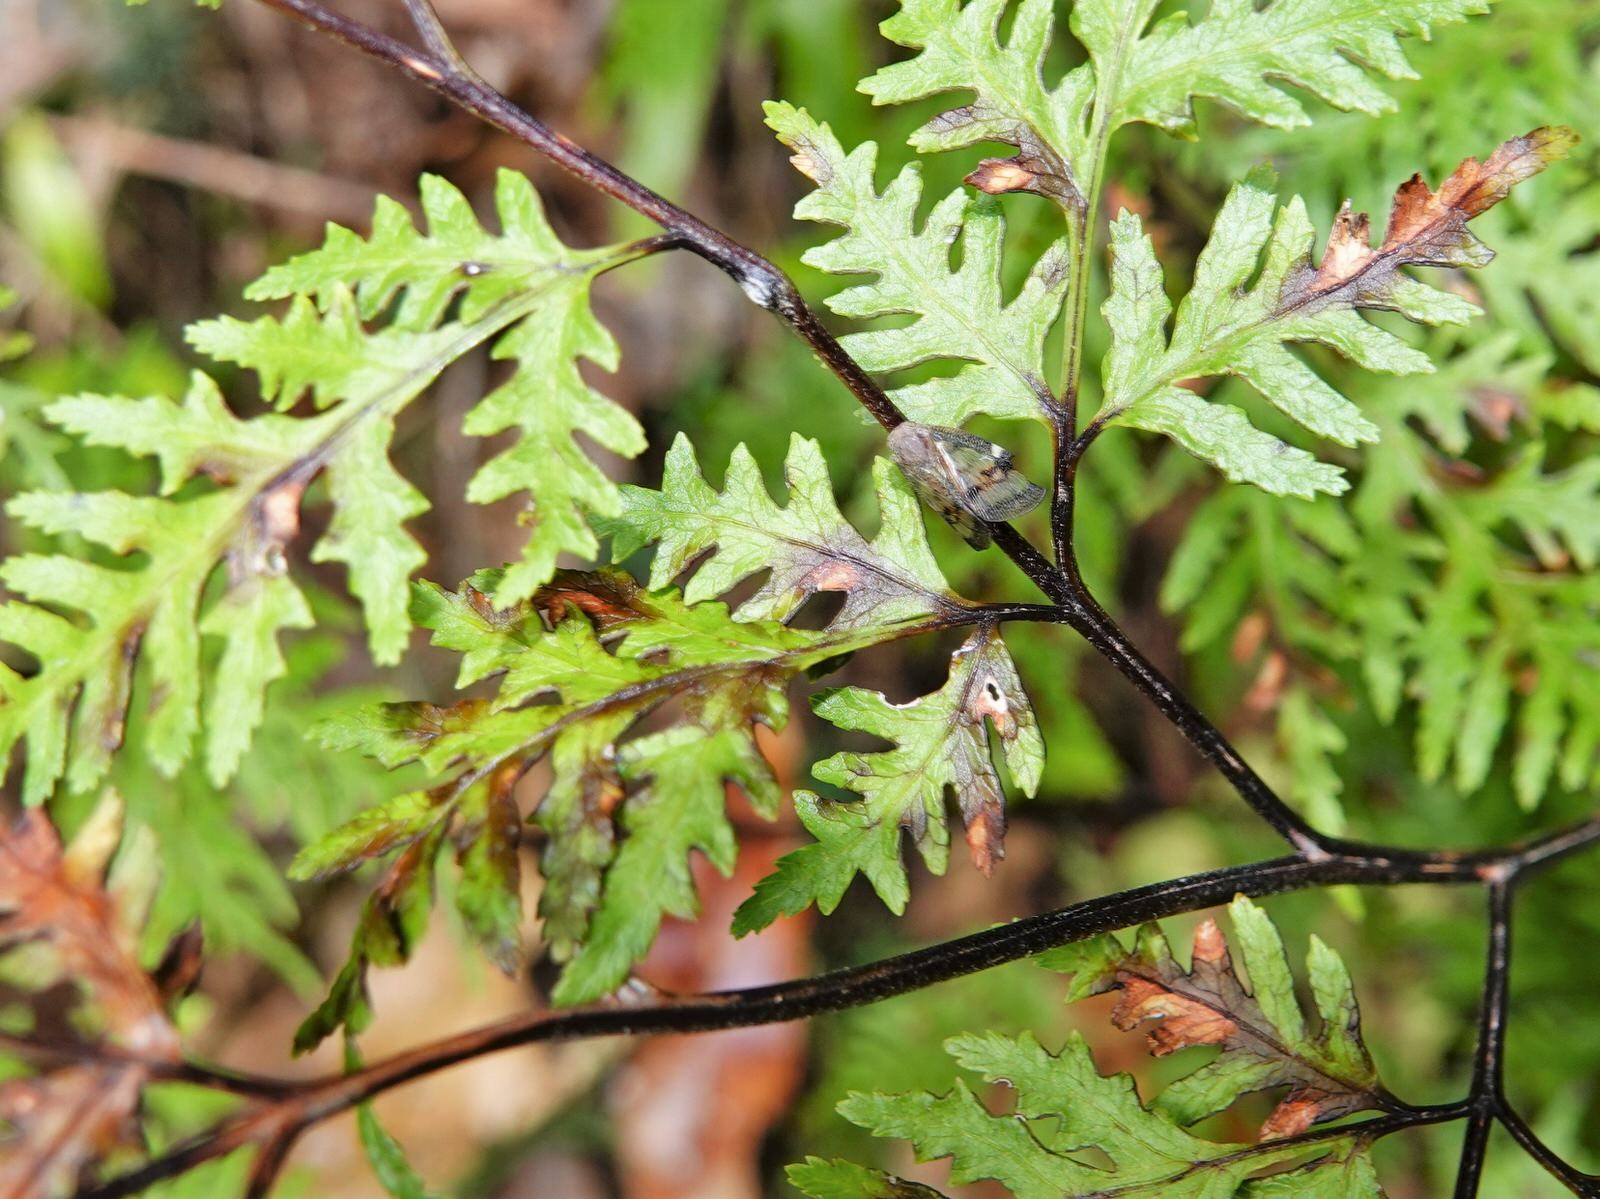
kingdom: Plantae
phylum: Tracheophyta
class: Polypodiopsida
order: Polypodiales
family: Pteridaceae
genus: Pteris
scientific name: Pteris macilenta
